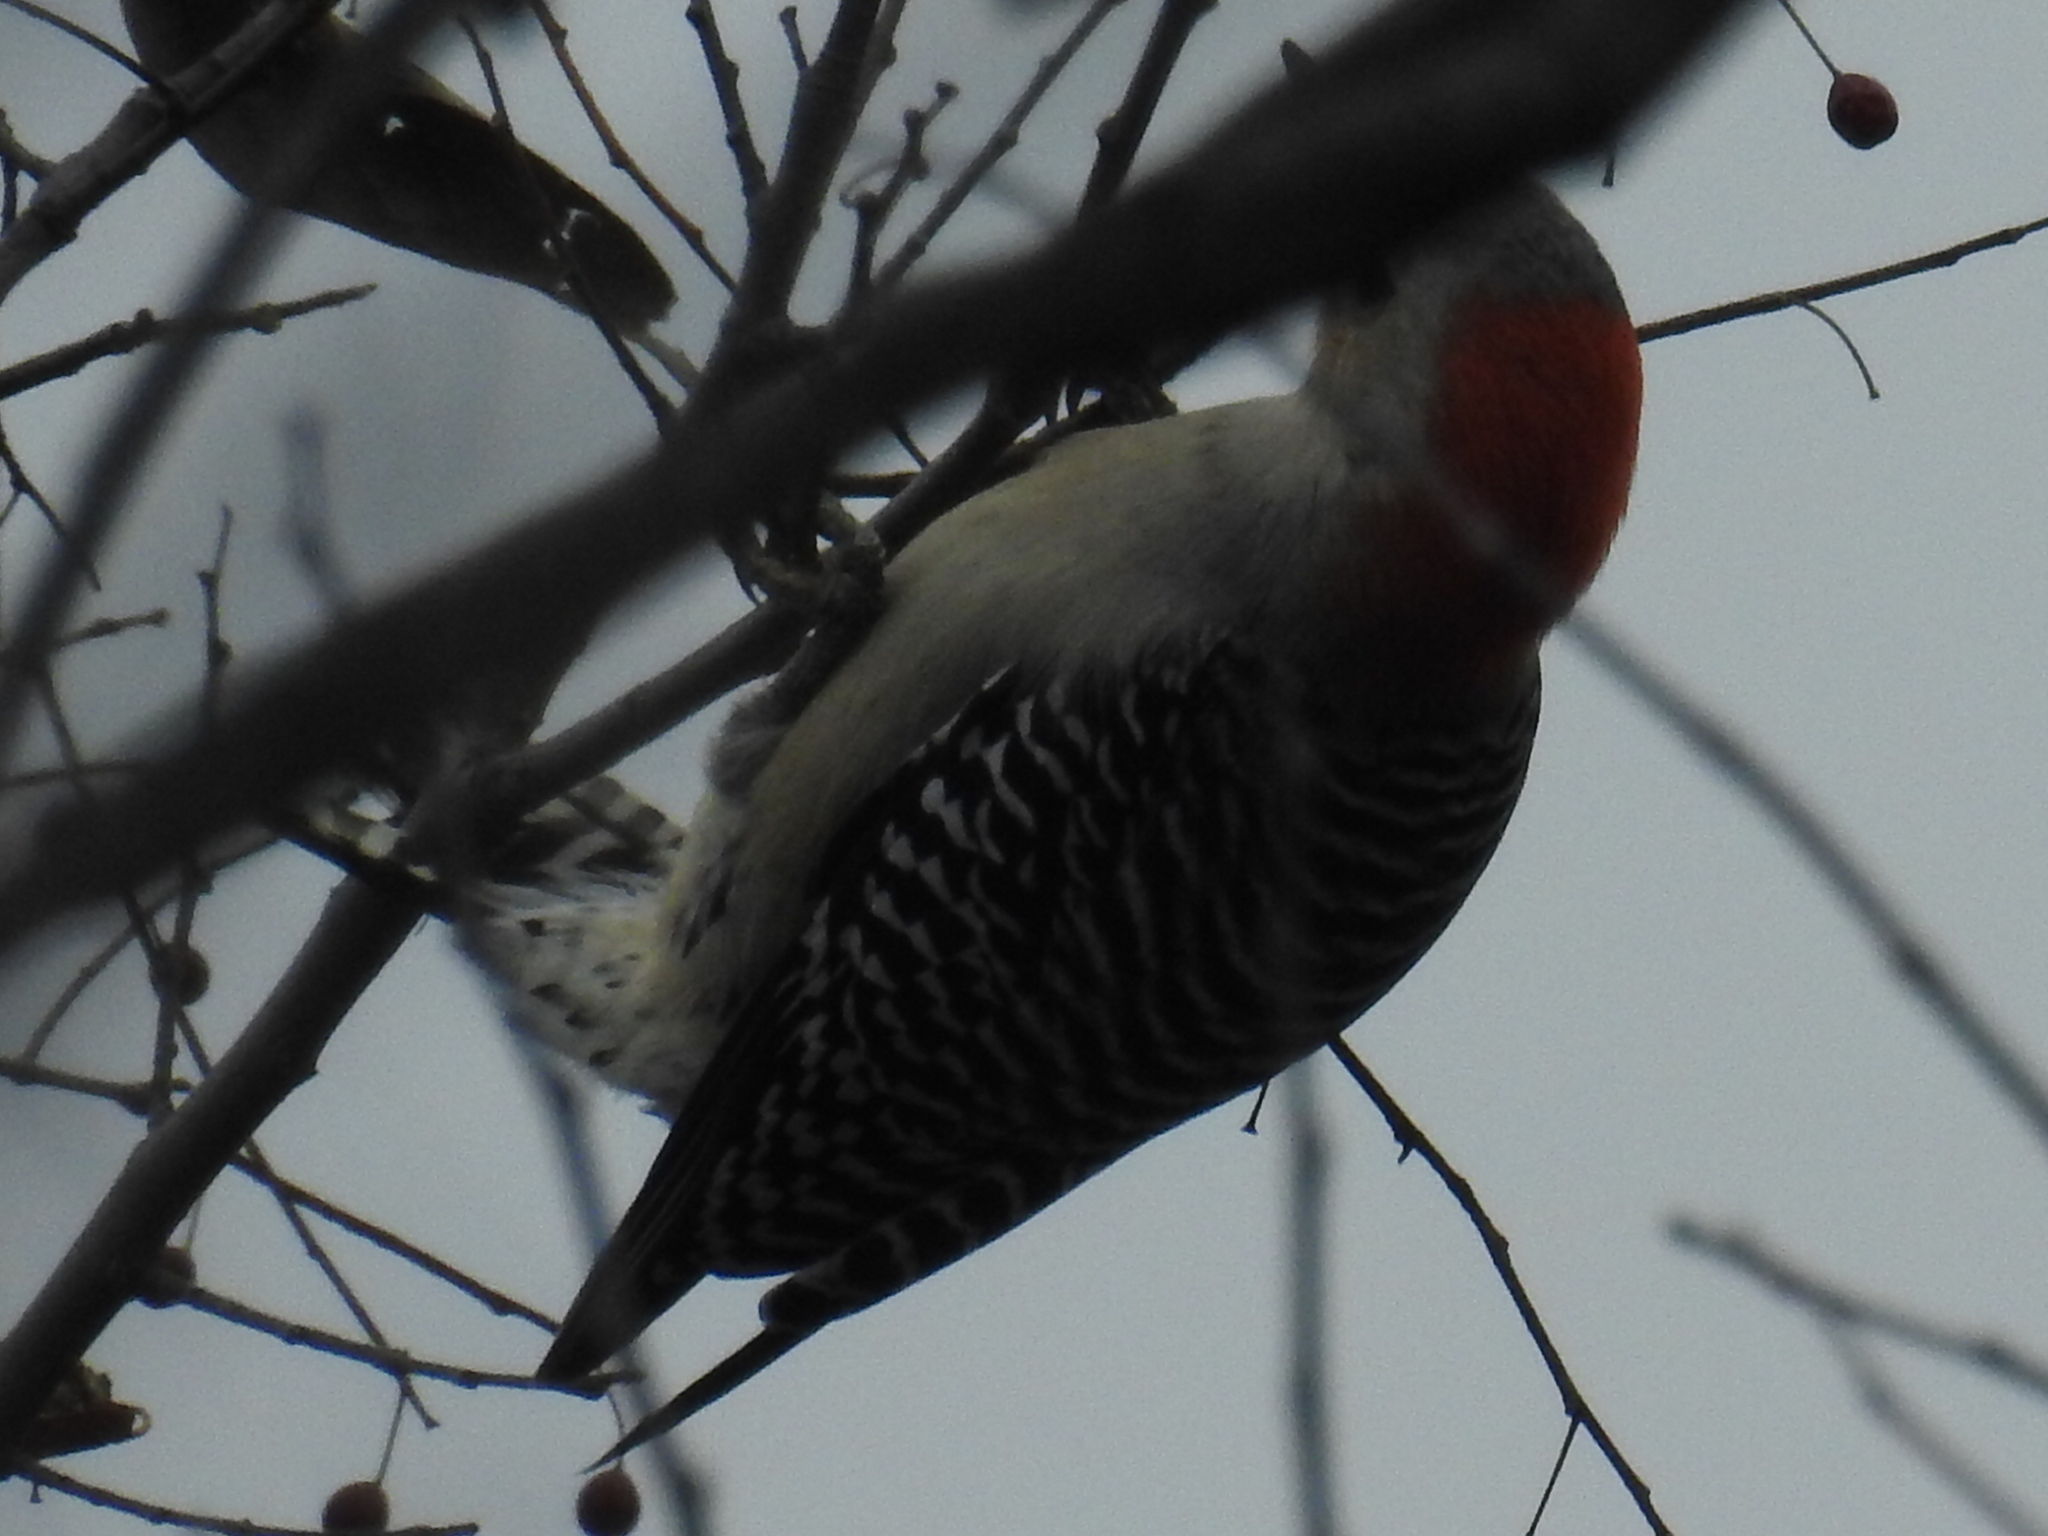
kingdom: Animalia
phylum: Chordata
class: Aves
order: Piciformes
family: Picidae
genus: Melanerpes
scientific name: Melanerpes carolinus
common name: Red-bellied woodpecker
